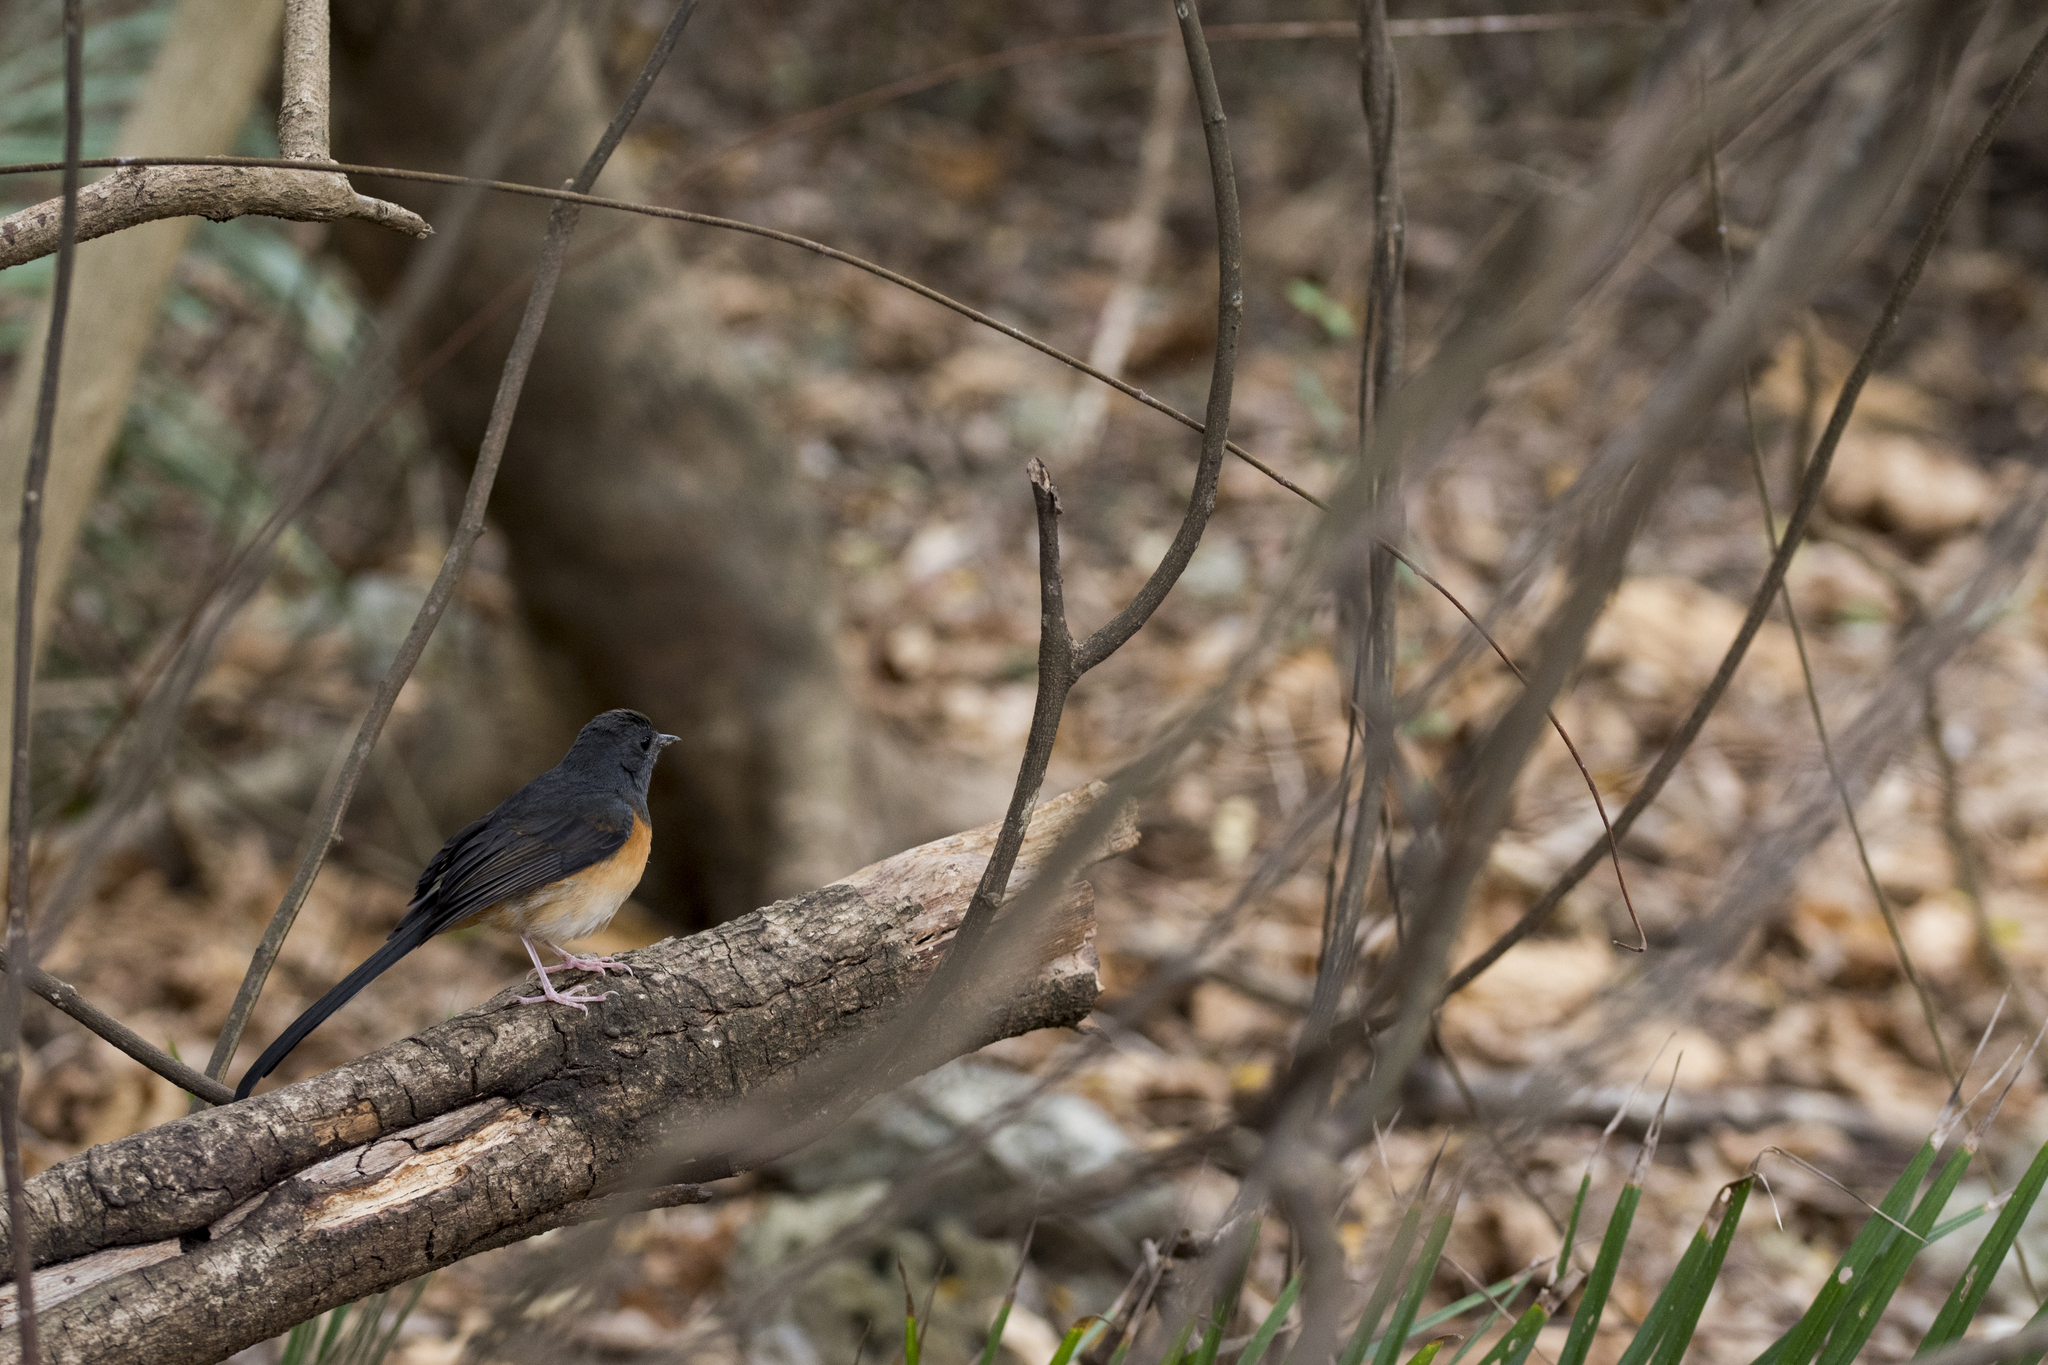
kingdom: Animalia
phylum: Chordata
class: Aves
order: Passeriformes
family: Muscicapidae
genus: Copsychus
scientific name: Copsychus malabaricus
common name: White-rumped shama
